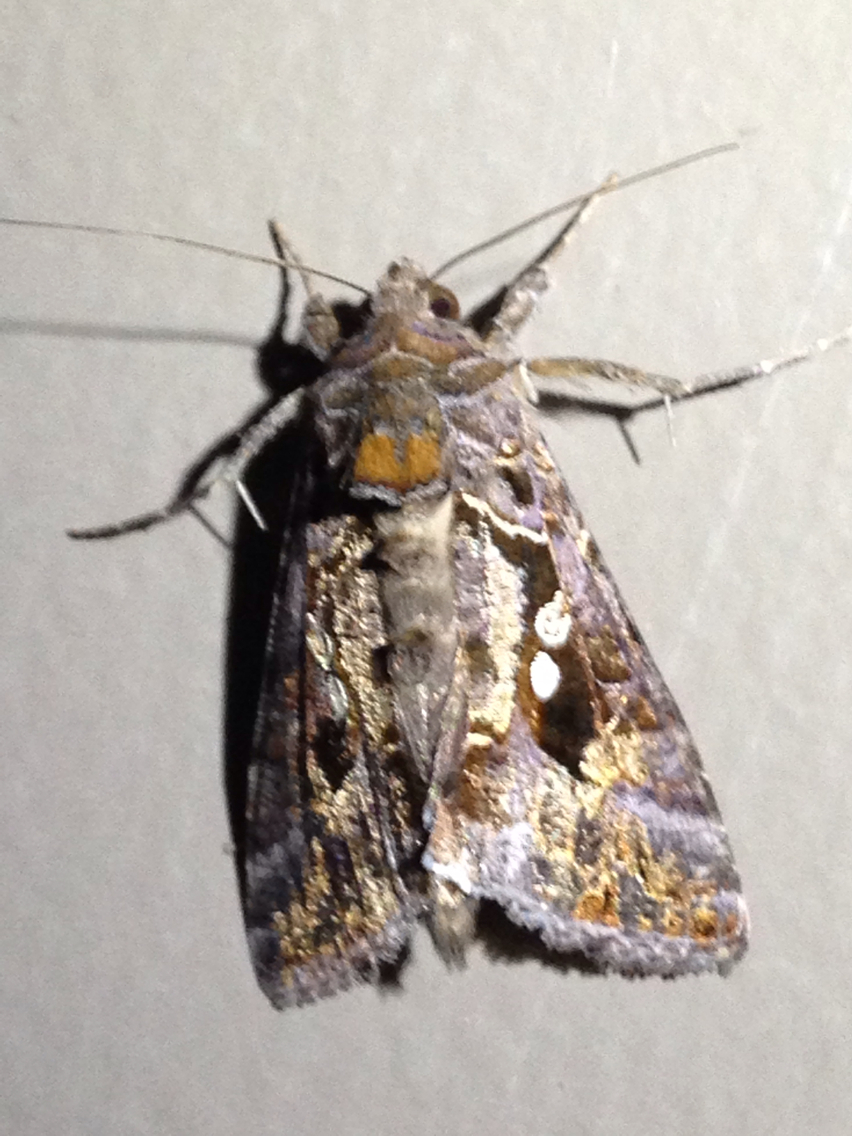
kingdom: Animalia
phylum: Arthropoda
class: Insecta
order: Lepidoptera
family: Noctuidae
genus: Chrysodeixis
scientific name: Chrysodeixis includens
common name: Cutworm moth
